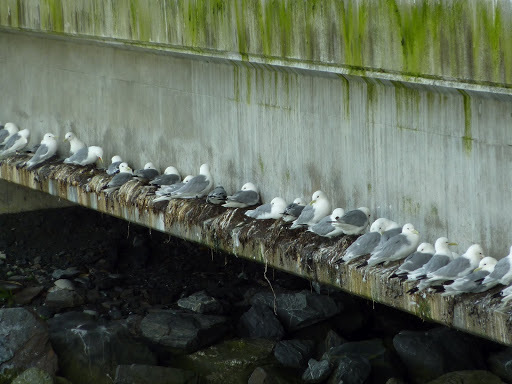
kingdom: Animalia
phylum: Chordata
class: Aves
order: Charadriiformes
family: Laridae
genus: Rissa
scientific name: Rissa tridactyla
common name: Black-legged kittiwake
